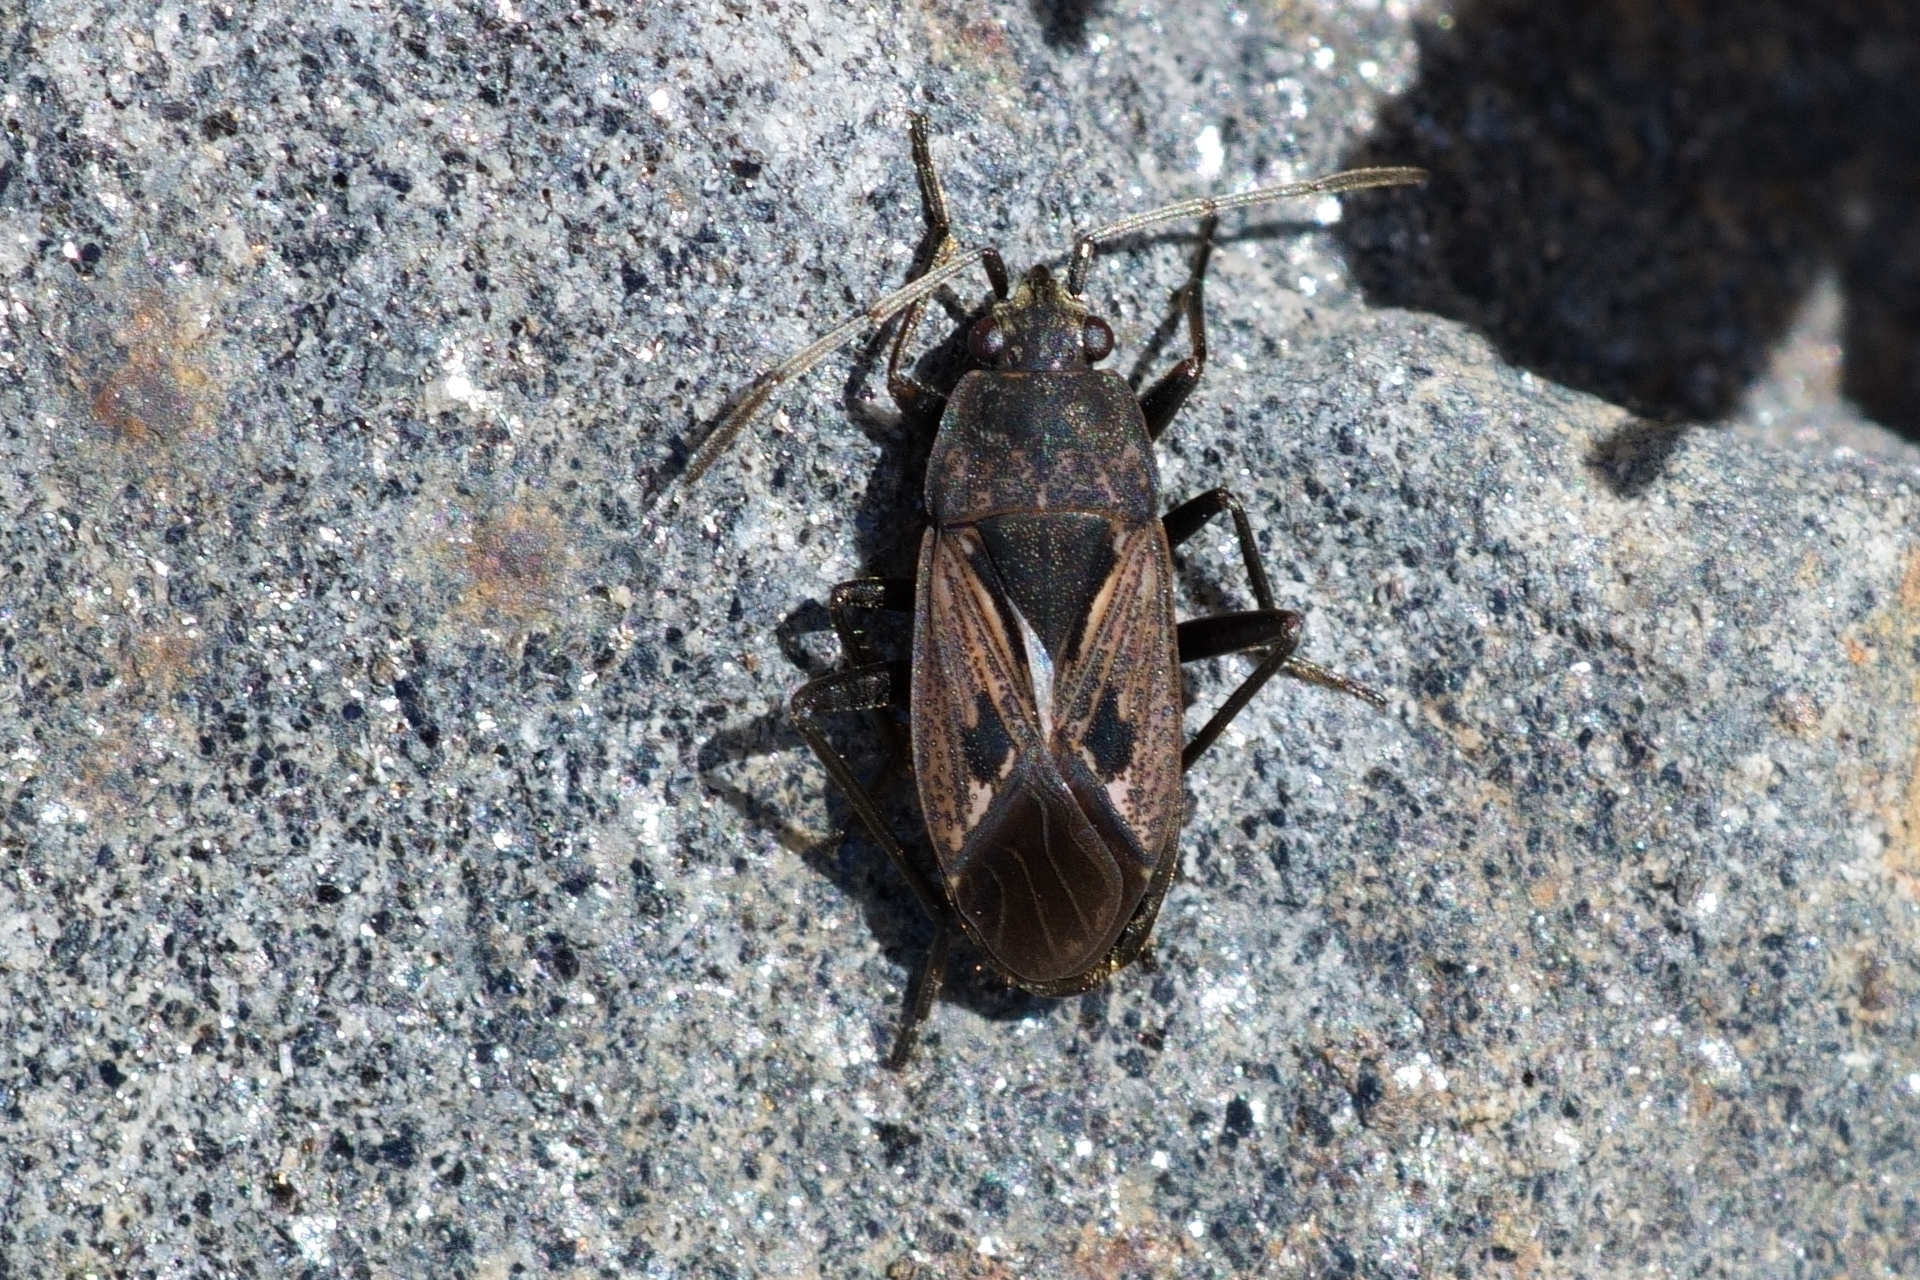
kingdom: Animalia
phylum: Arthropoda
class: Insecta
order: Hemiptera
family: Rhyparochromidae
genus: Rhyparochromus
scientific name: Rhyparochromus pini
